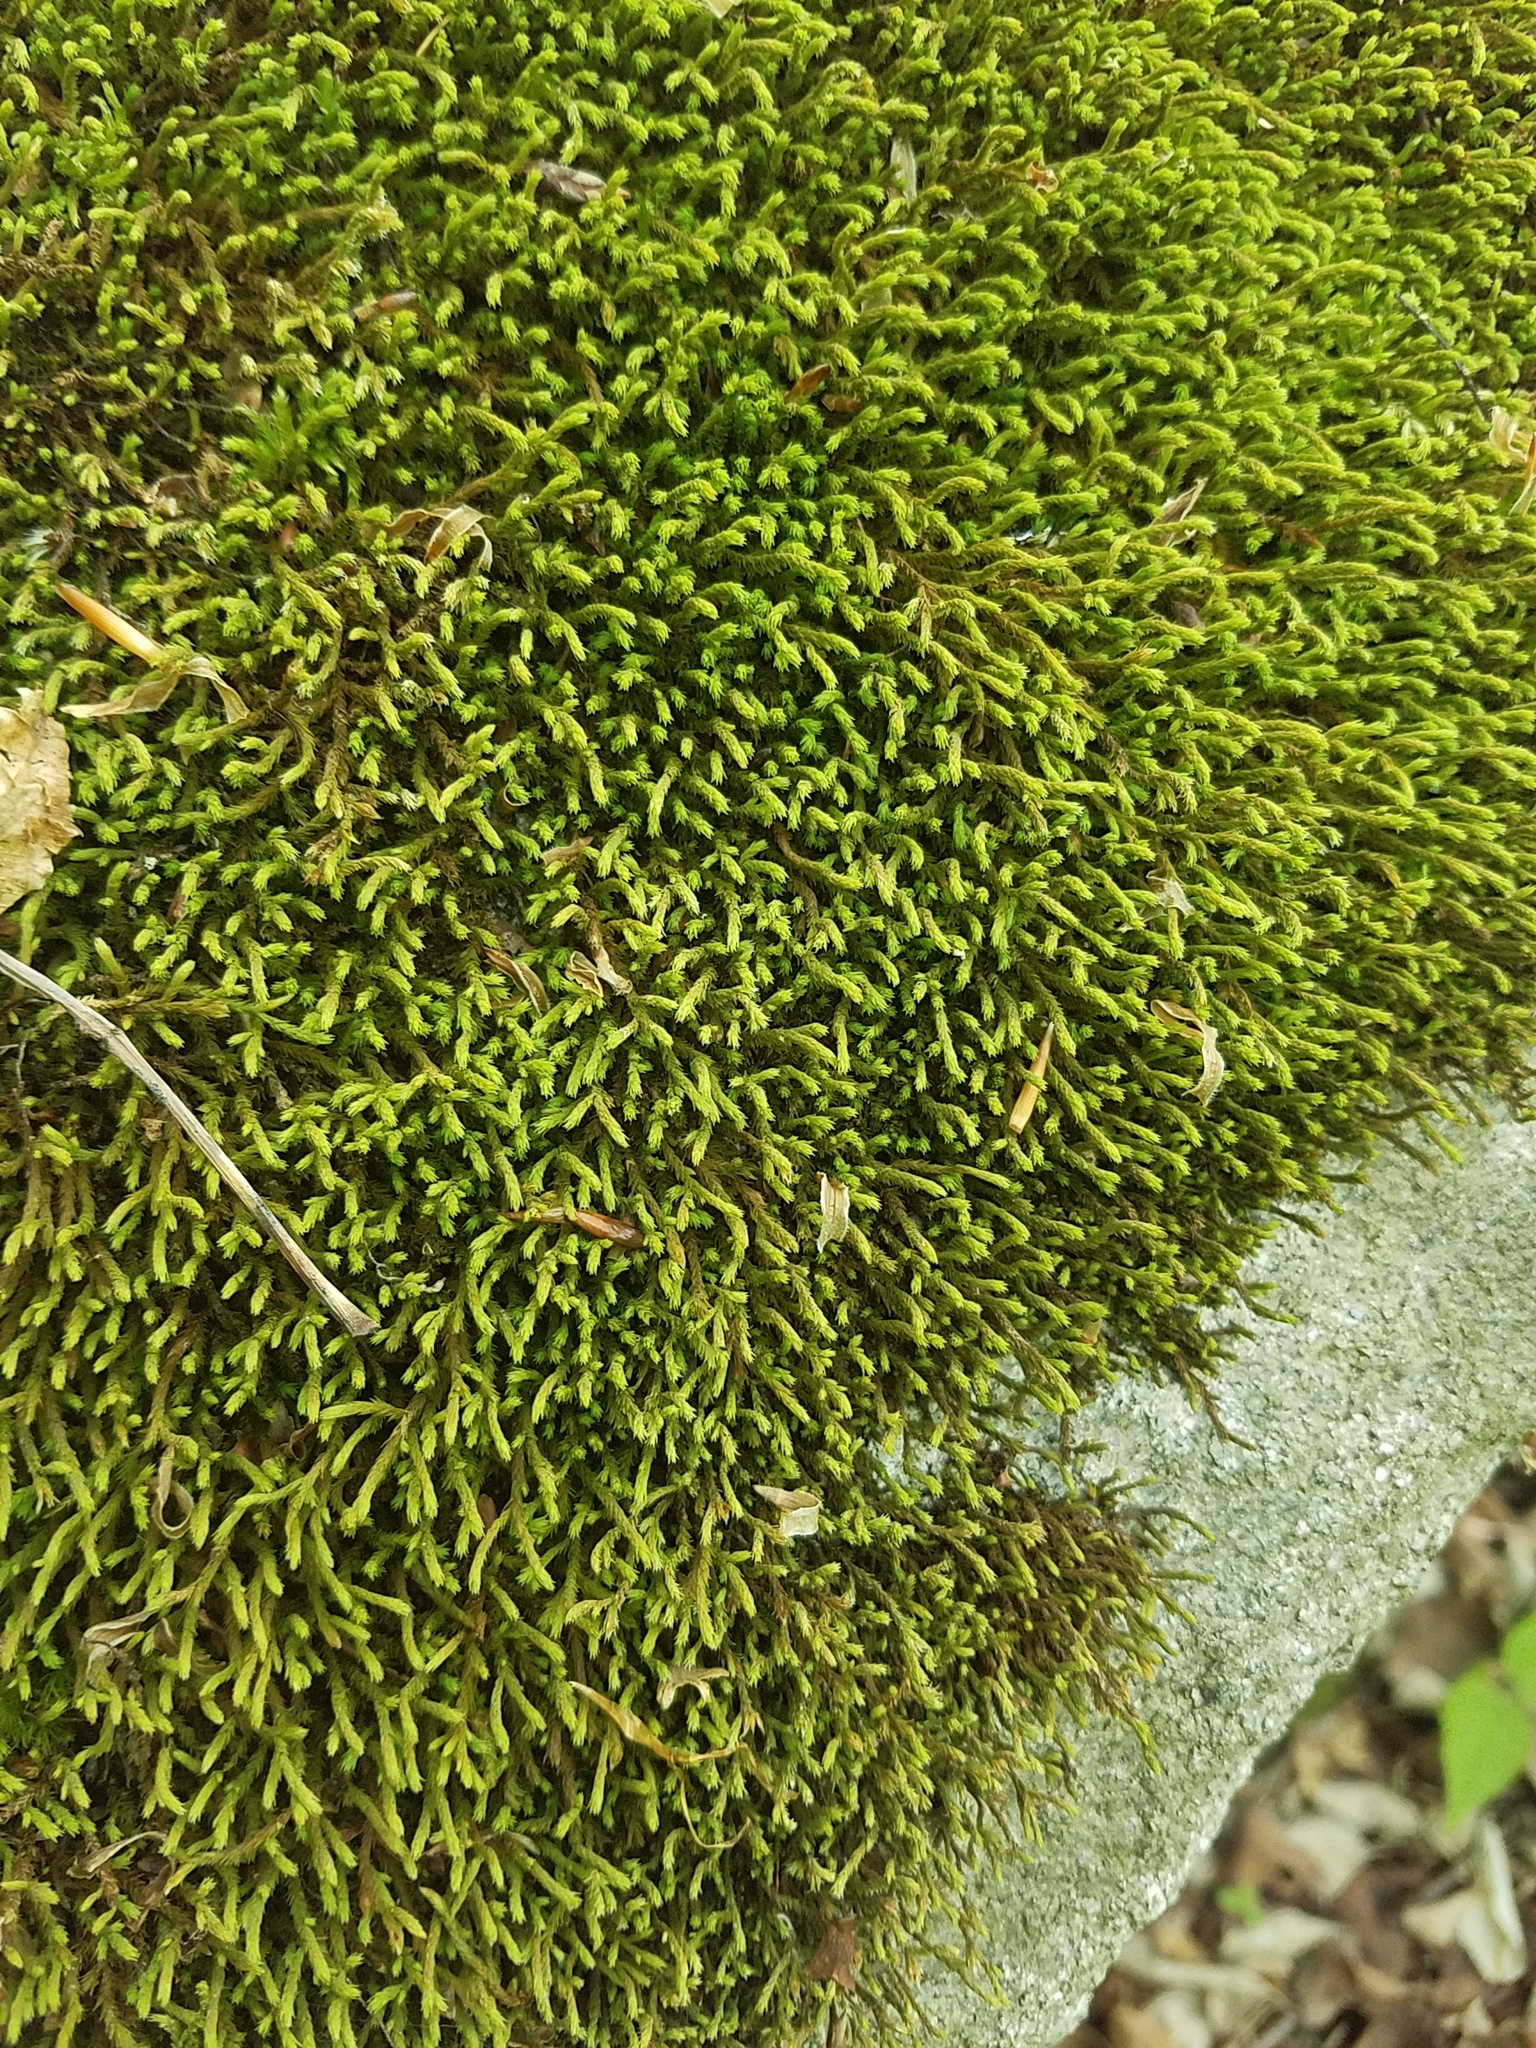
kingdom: Plantae
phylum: Bryophyta
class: Bryopsida
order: Hedwigiales
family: Hedwigiaceae
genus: Hedwigia
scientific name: Hedwigia ciliata
